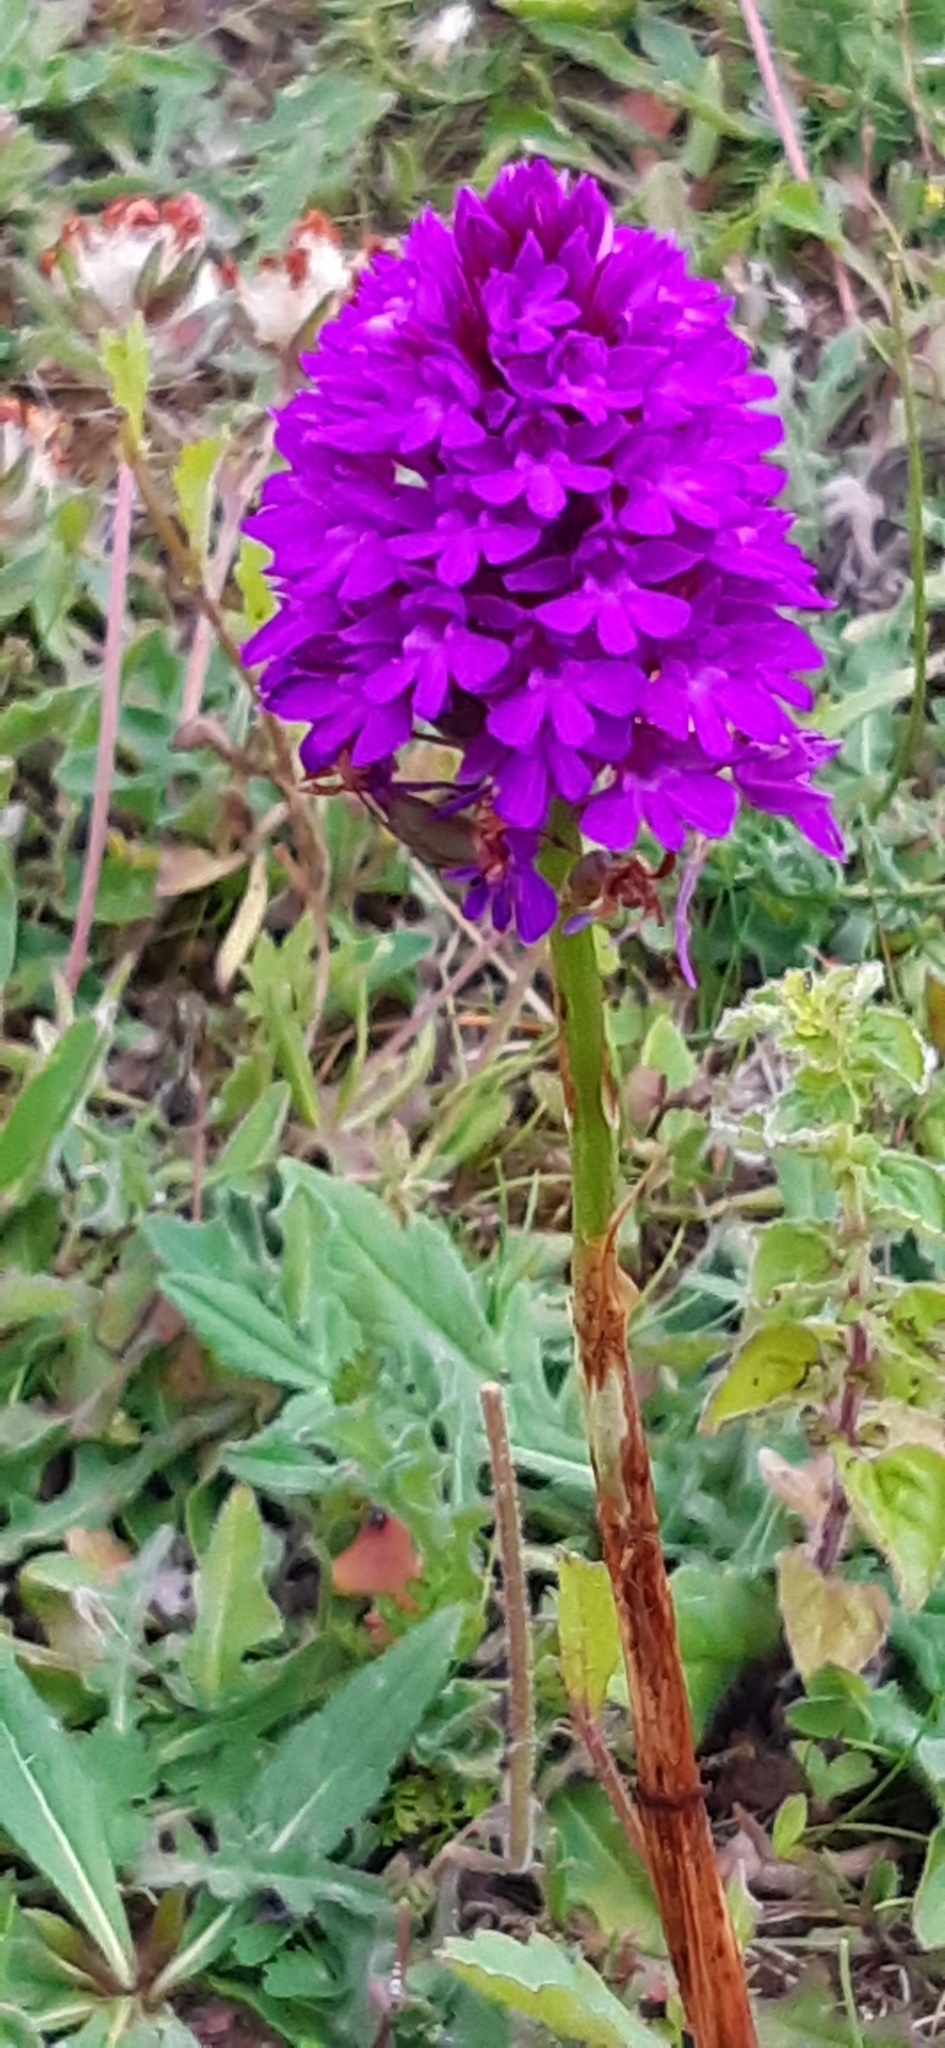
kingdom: Plantae
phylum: Tracheophyta
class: Liliopsida
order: Asparagales
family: Orchidaceae
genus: Anacamptis
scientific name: Anacamptis pyramidalis
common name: Pyramidal orchid
